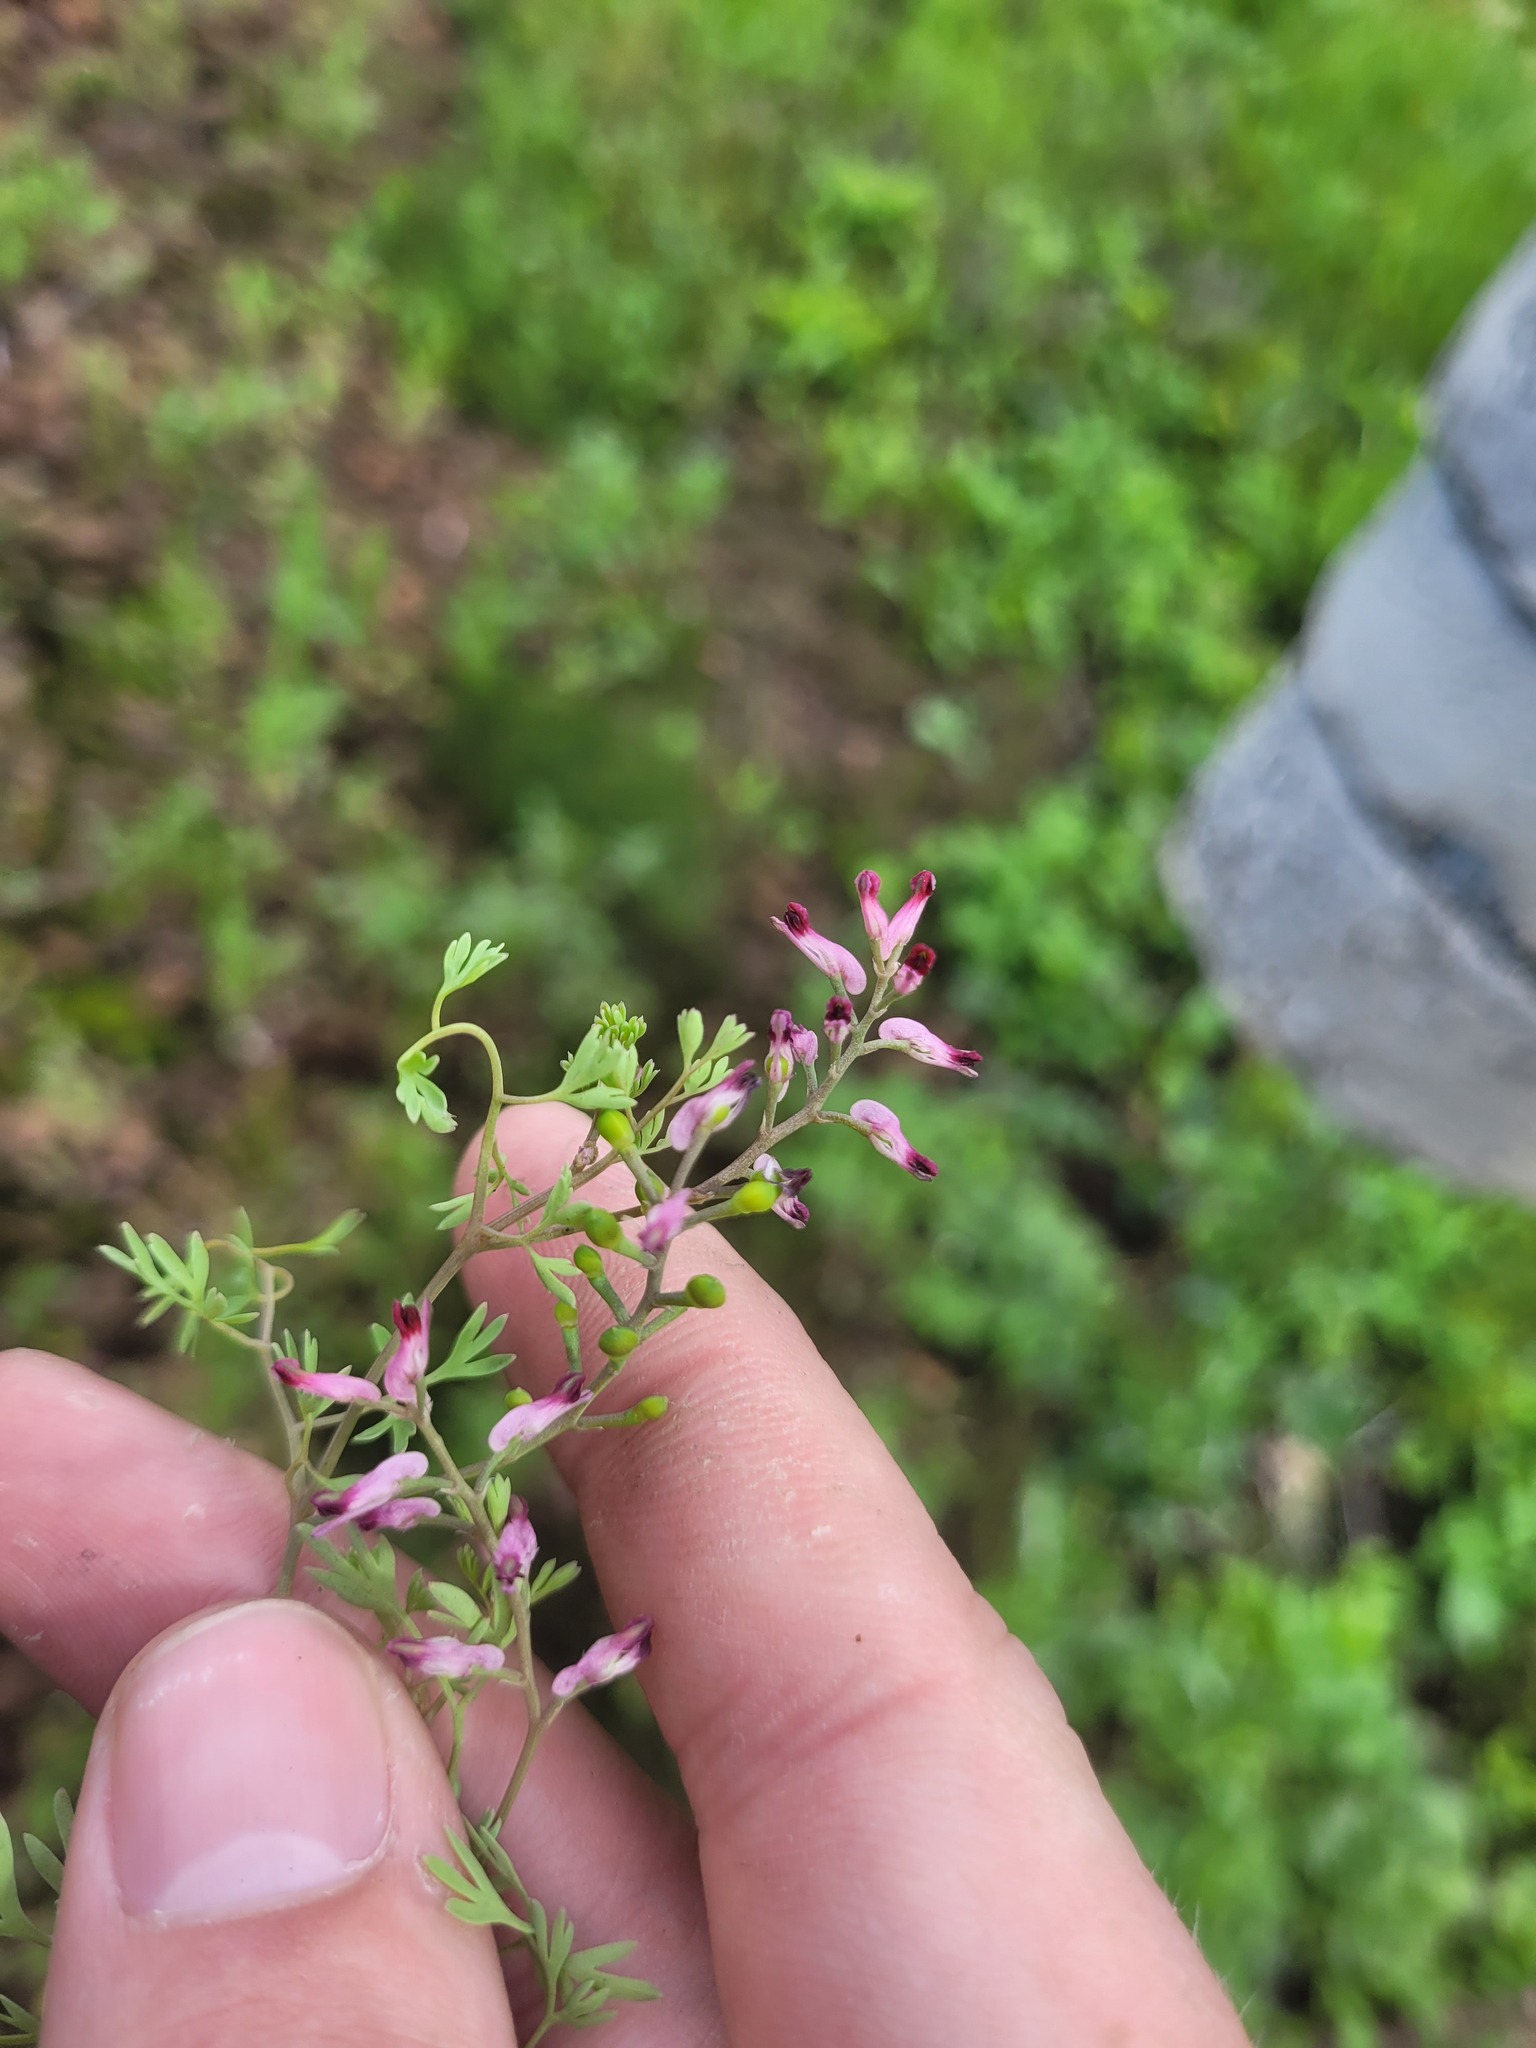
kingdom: Plantae
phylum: Tracheophyta
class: Magnoliopsida
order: Ranunculales
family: Papaveraceae
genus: Fumaria
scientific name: Fumaria schleicheri
